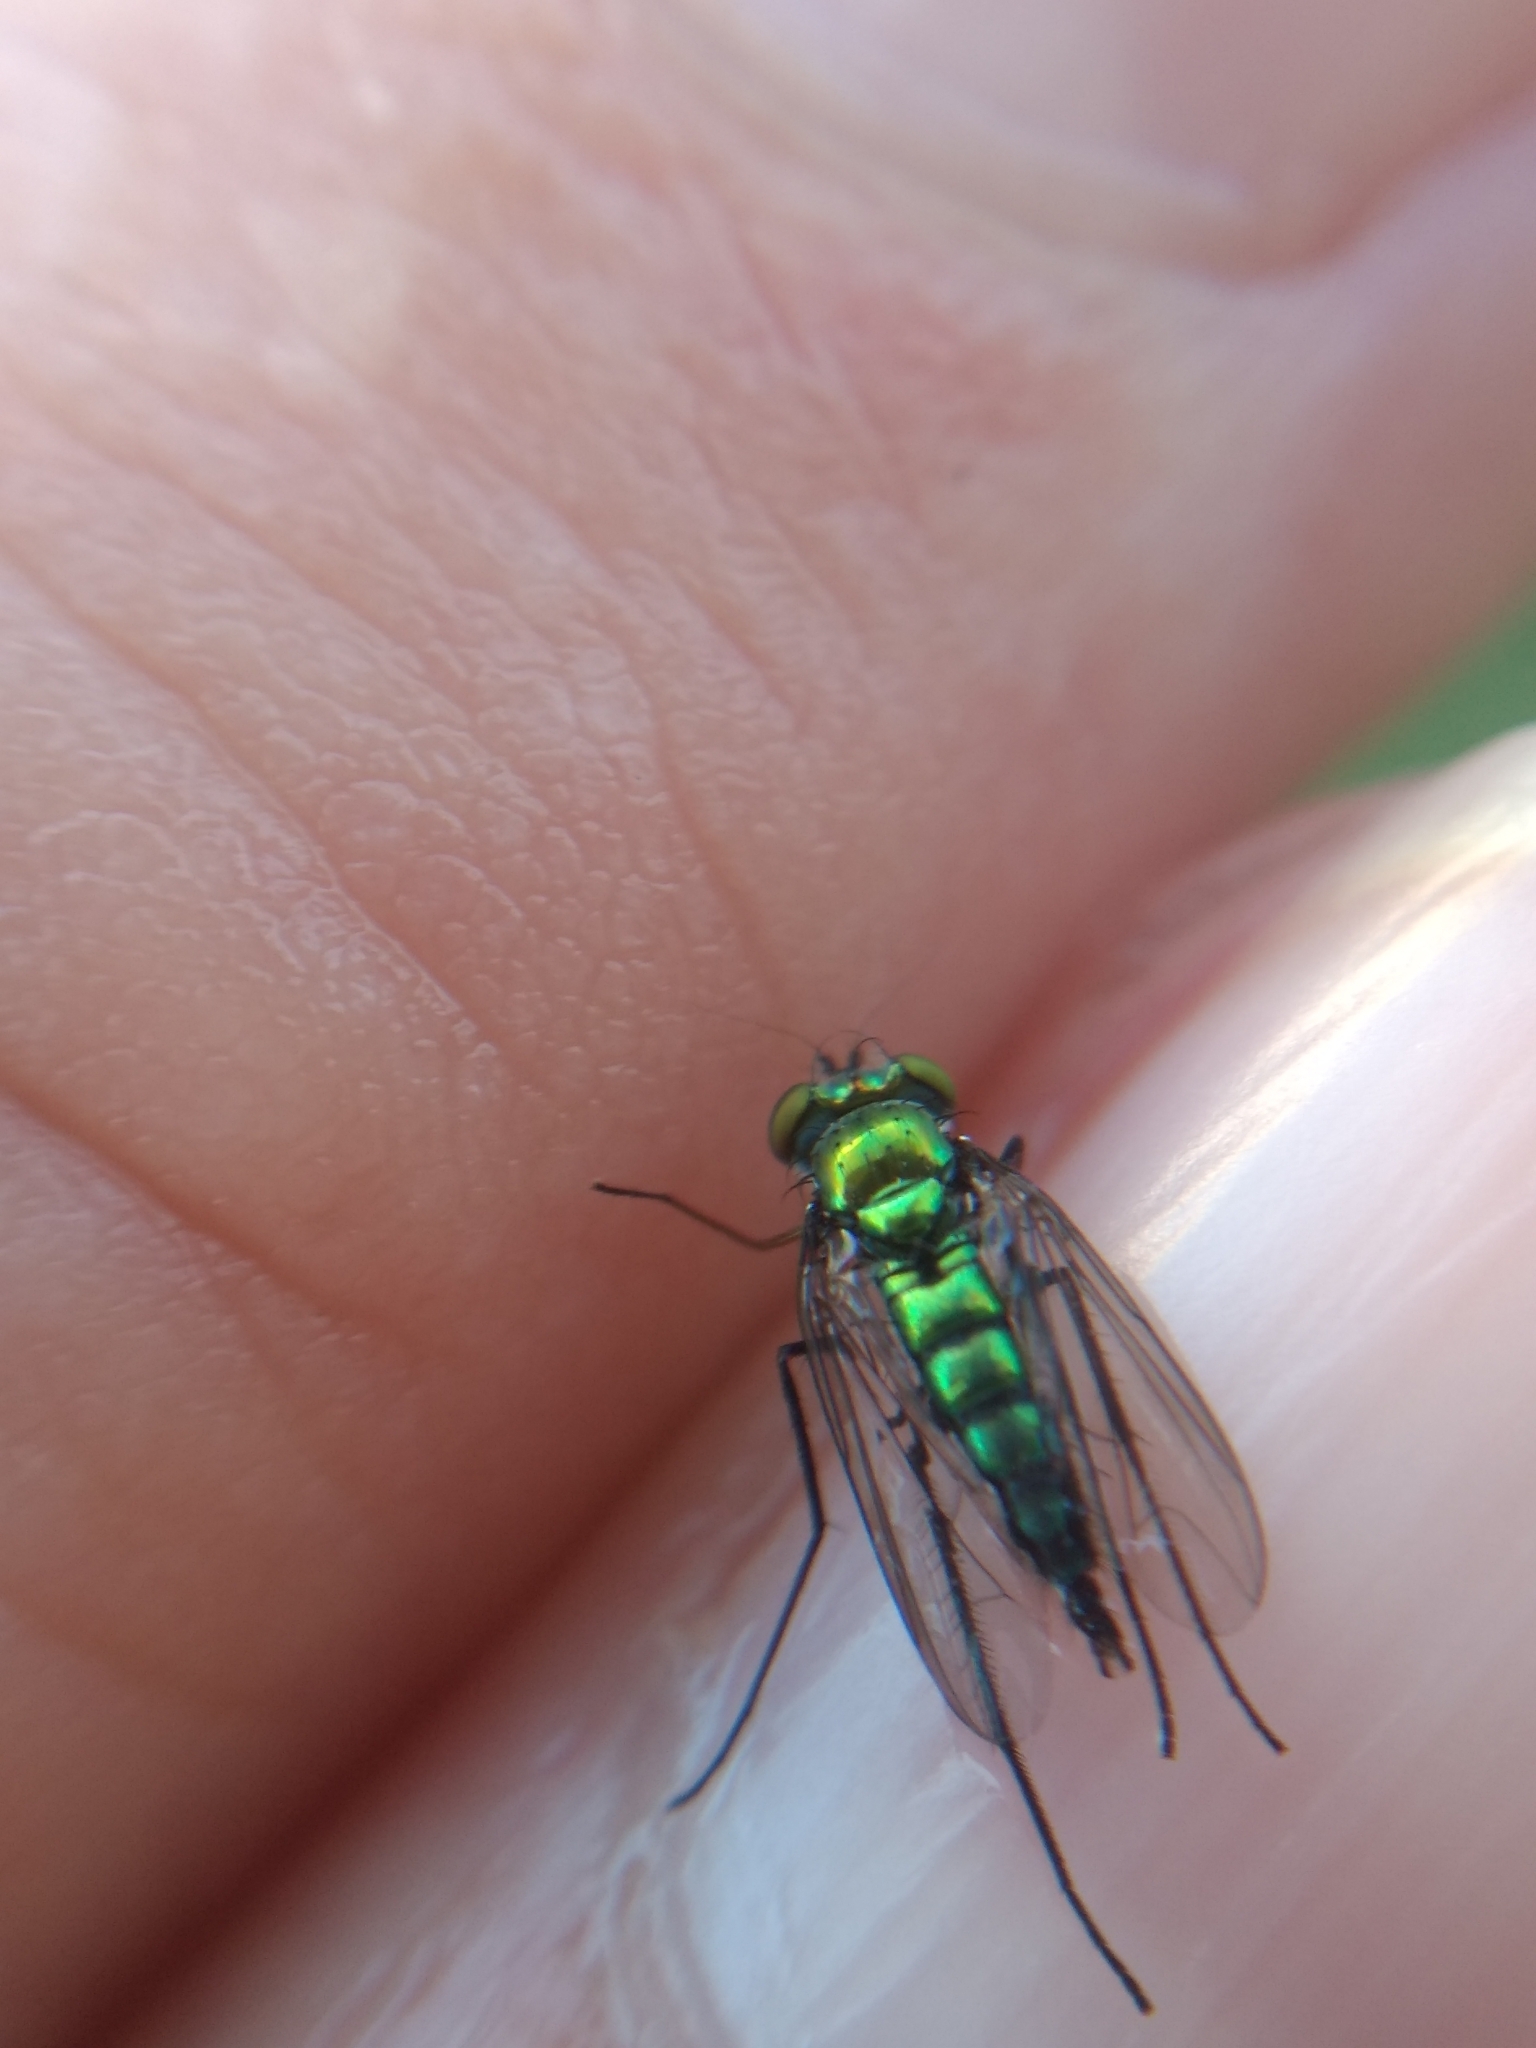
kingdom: Animalia
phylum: Arthropoda
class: Insecta
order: Diptera
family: Dolichopodidae
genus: Condylostylus
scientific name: Condylostylus longicornis
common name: Long-legged fly
